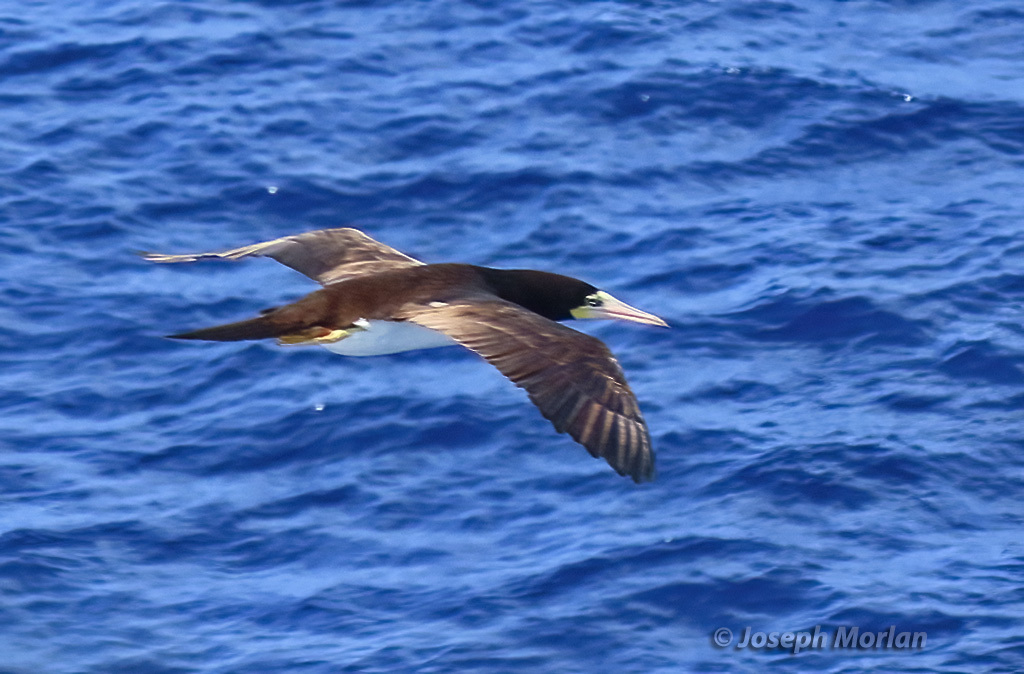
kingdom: Animalia
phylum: Chordata
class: Aves
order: Suliformes
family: Sulidae
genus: Sula
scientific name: Sula leucogaster
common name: Brown booby
